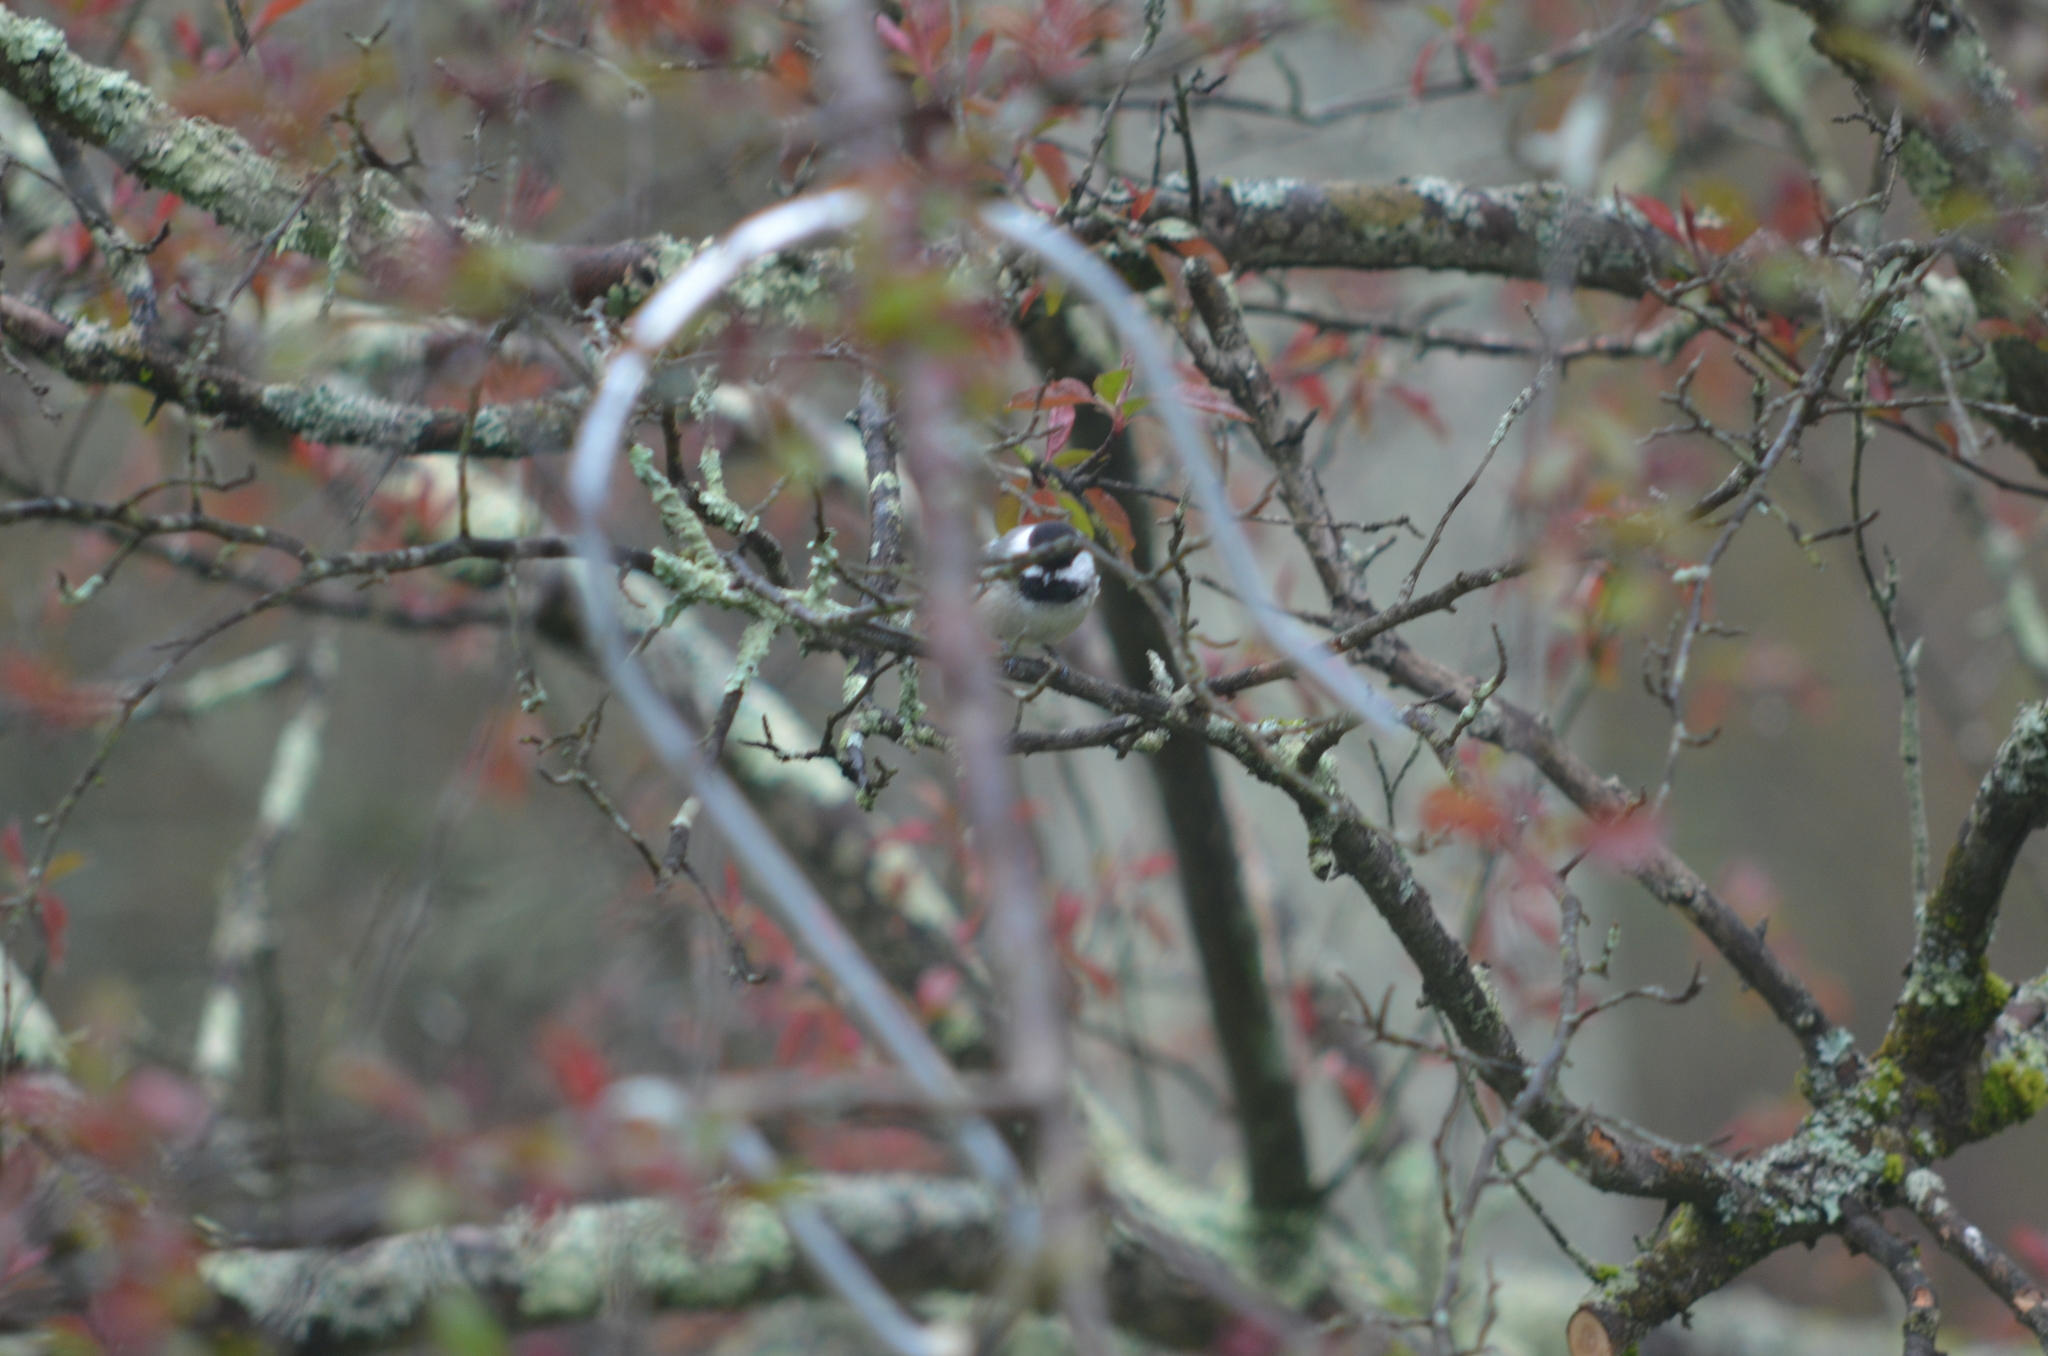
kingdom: Animalia
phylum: Chordata
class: Aves
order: Passeriformes
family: Paridae
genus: Poecile
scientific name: Poecile atricapillus
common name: Black-capped chickadee
